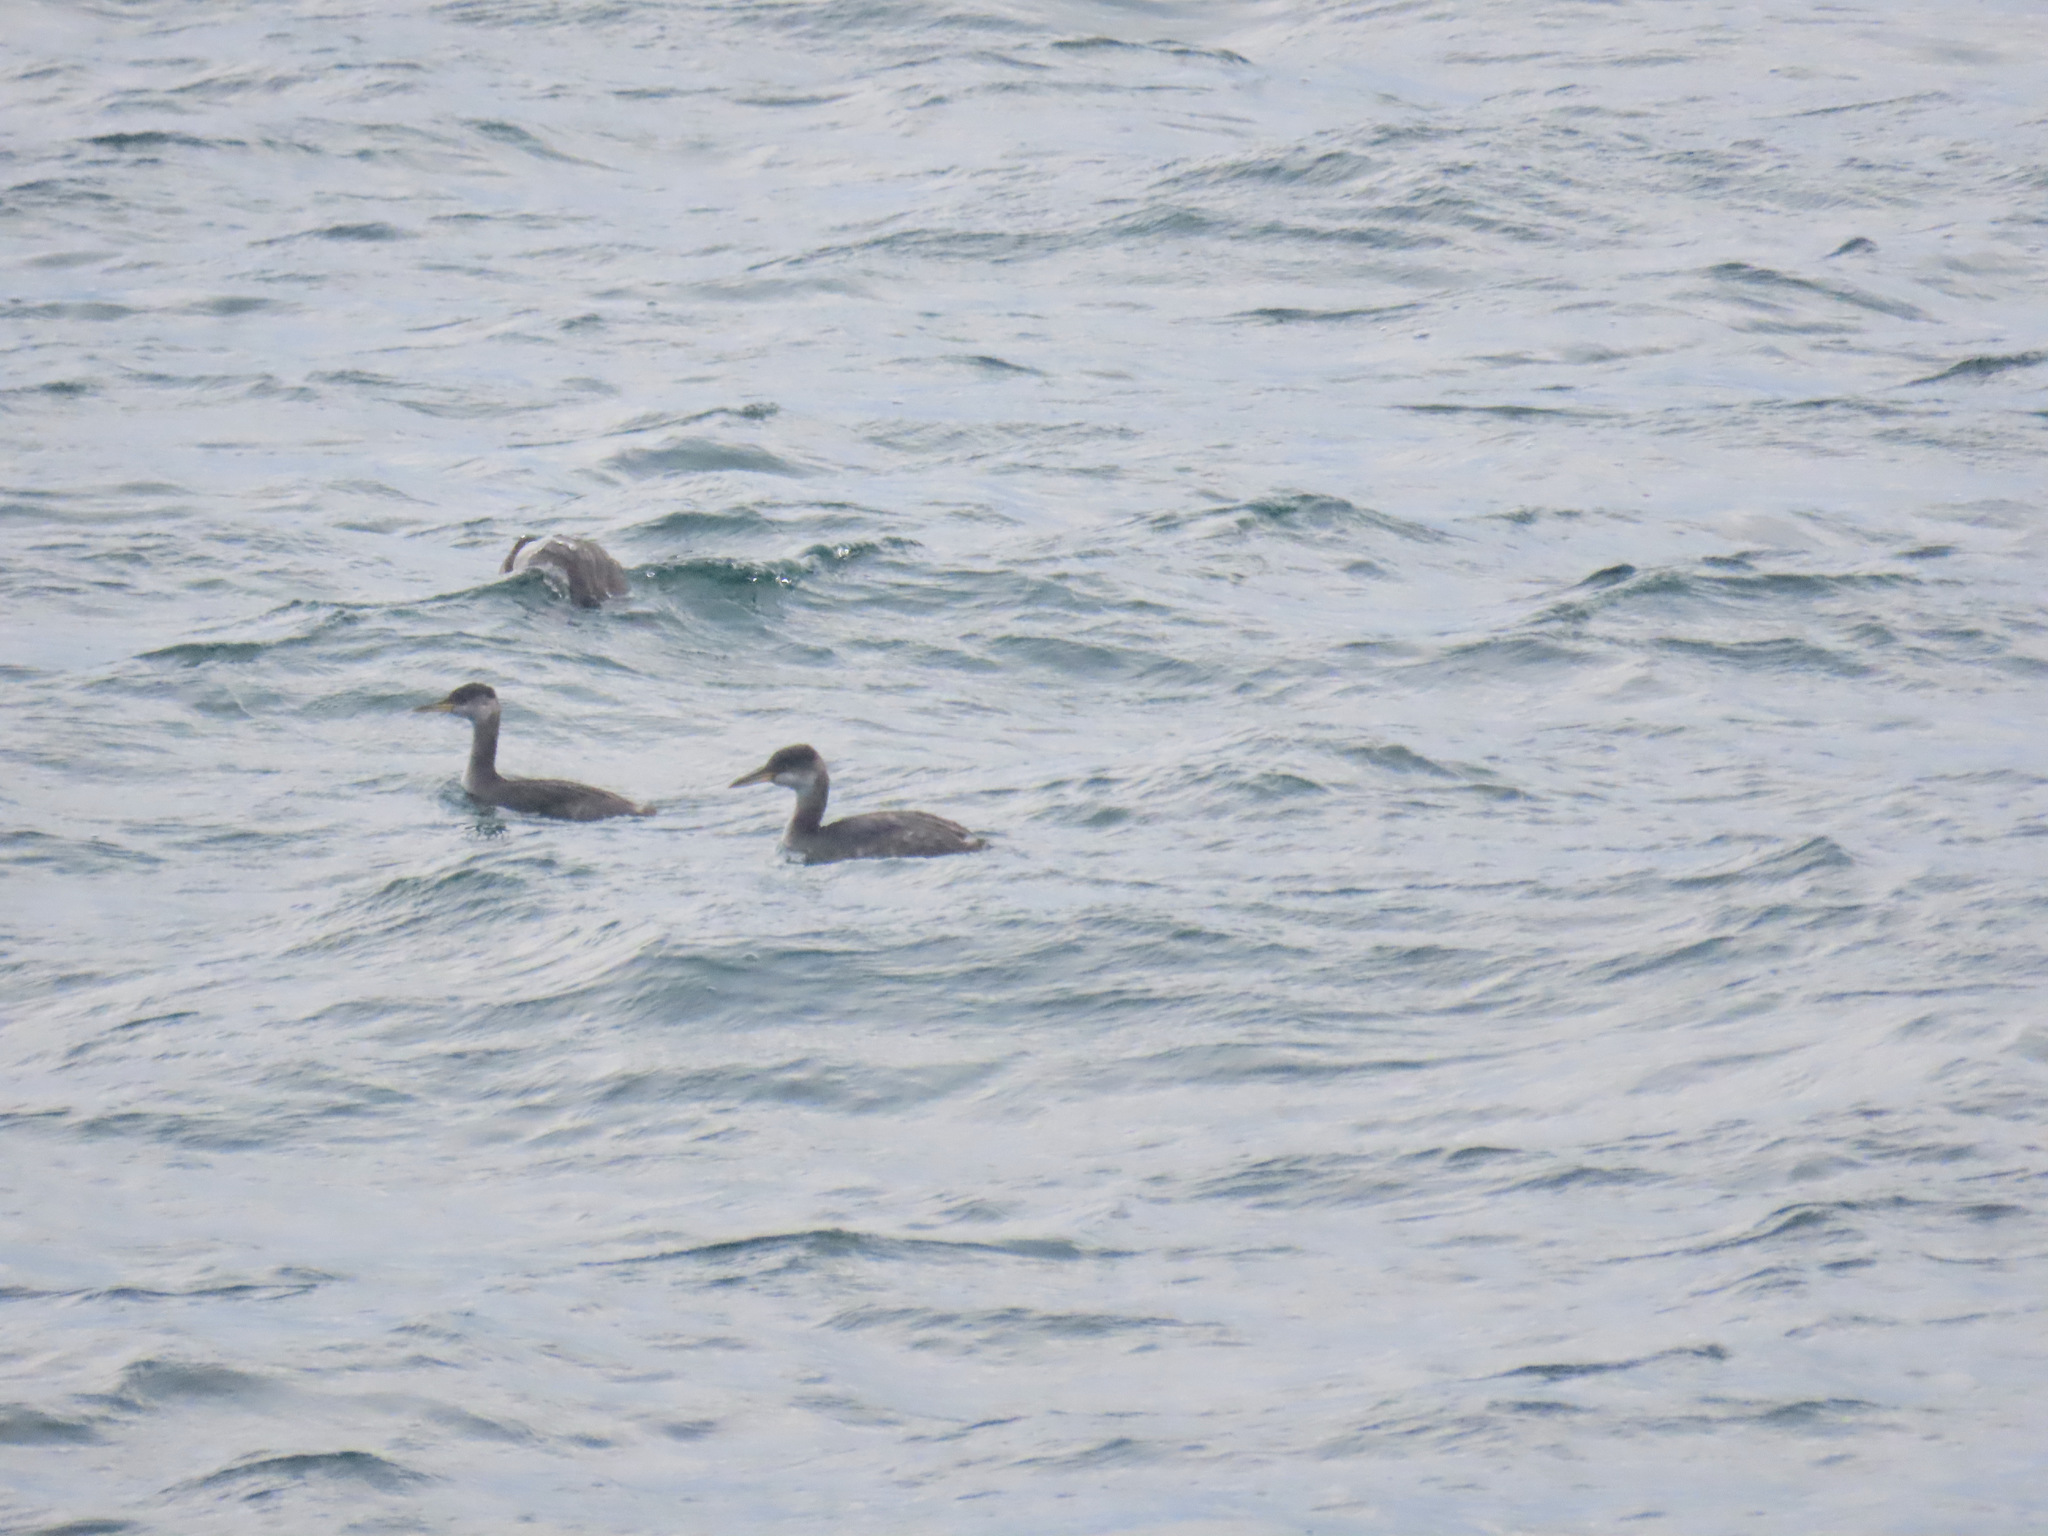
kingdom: Animalia
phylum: Chordata
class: Aves
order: Podicipediformes
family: Podicipedidae
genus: Podiceps
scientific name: Podiceps grisegena
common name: Red-necked grebe
